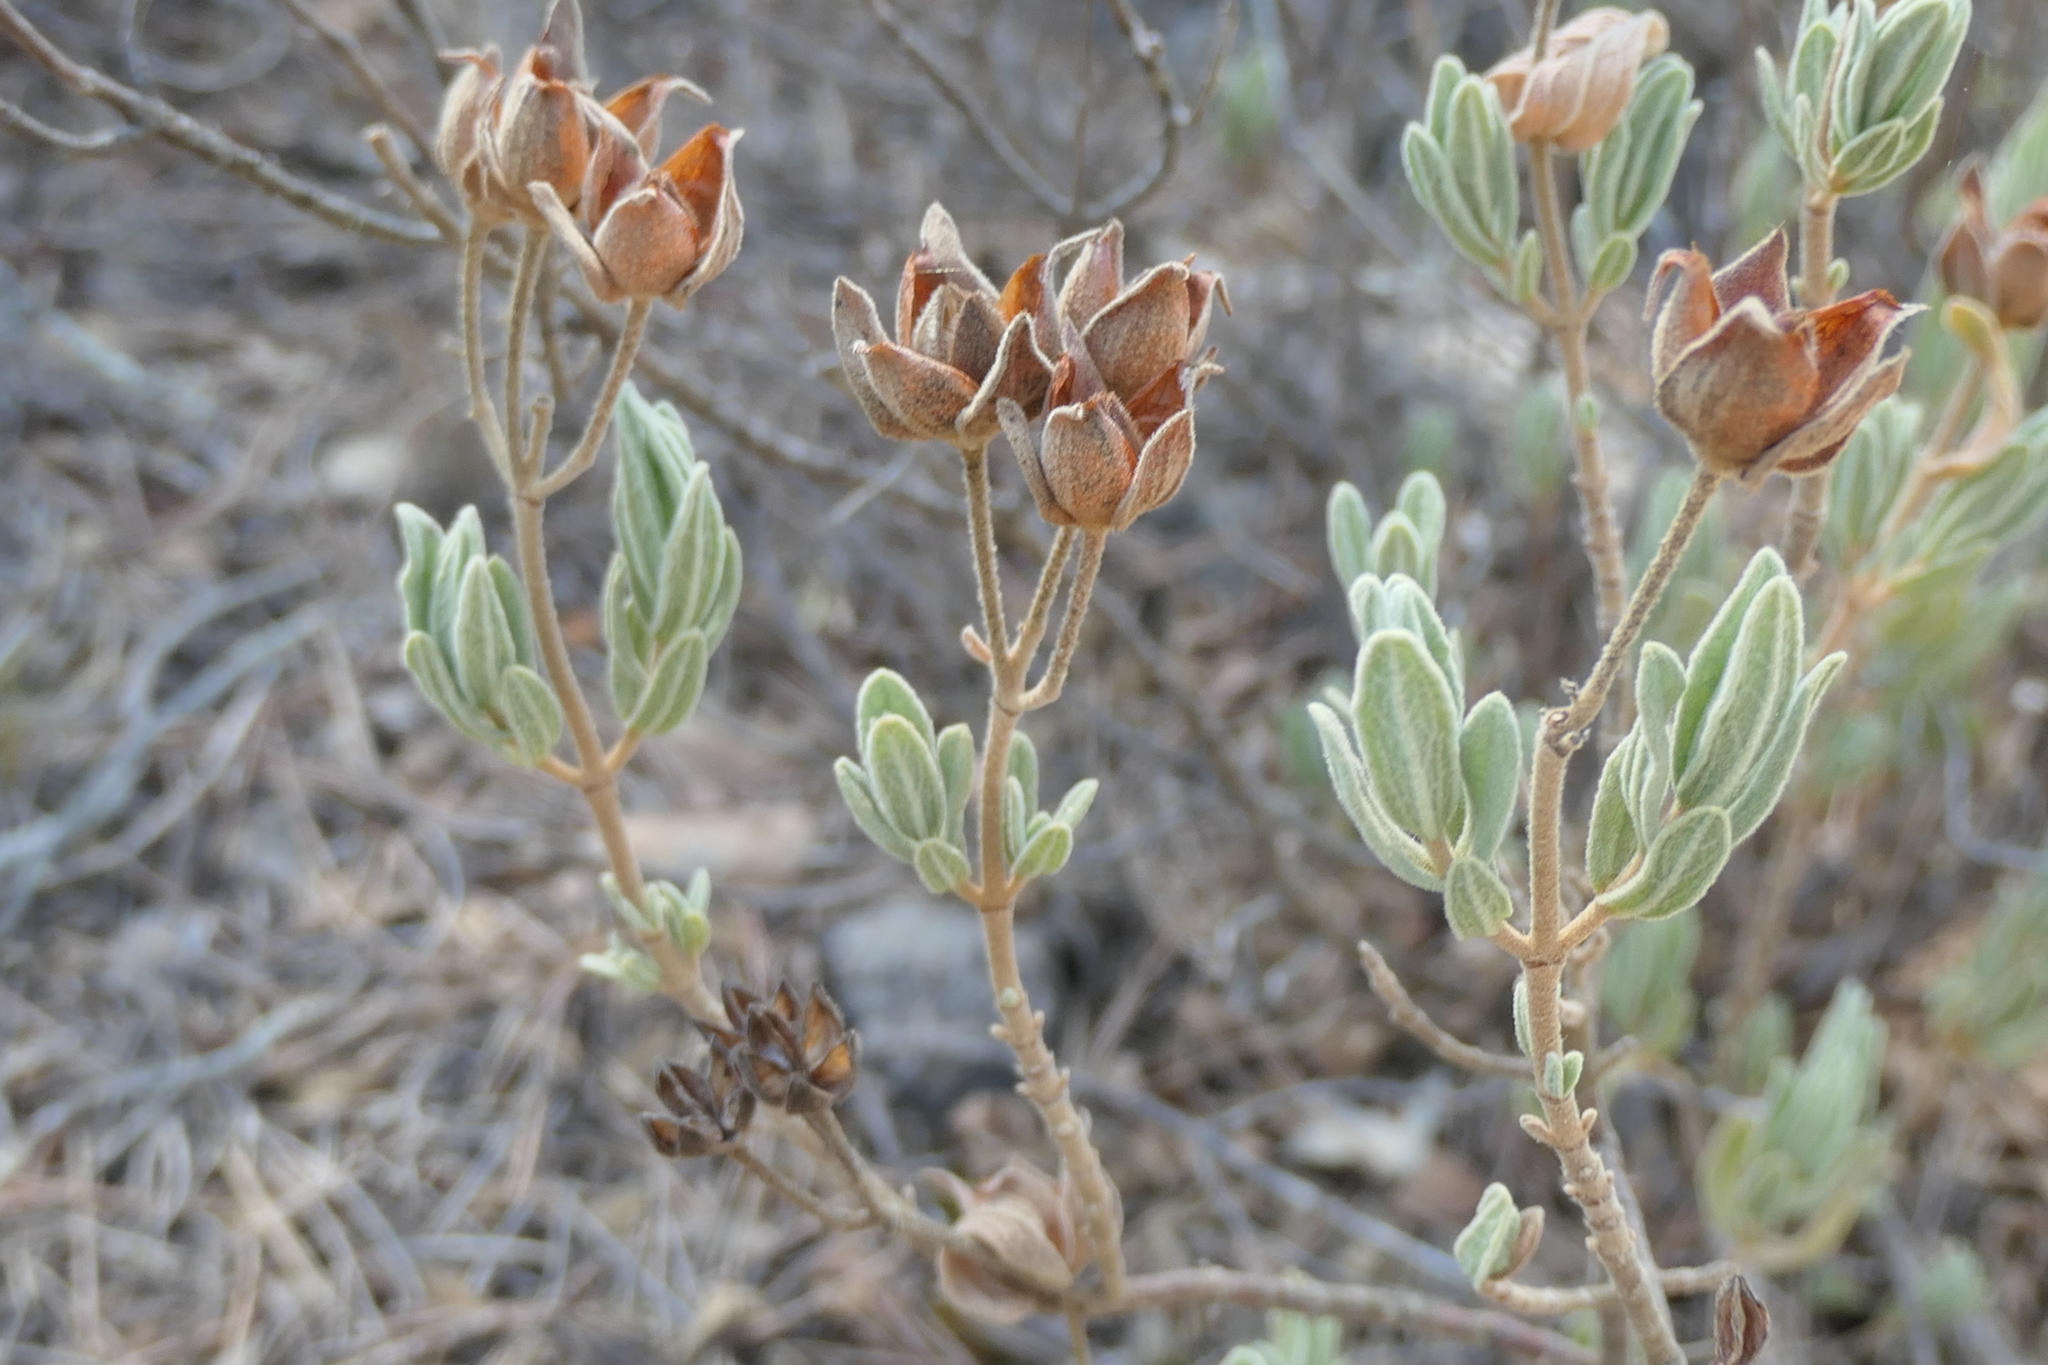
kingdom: Plantae
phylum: Tracheophyta
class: Magnoliopsida
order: Malvales
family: Cistaceae
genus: Cistus
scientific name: Cistus albidus
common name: White-leaf rock-rose
